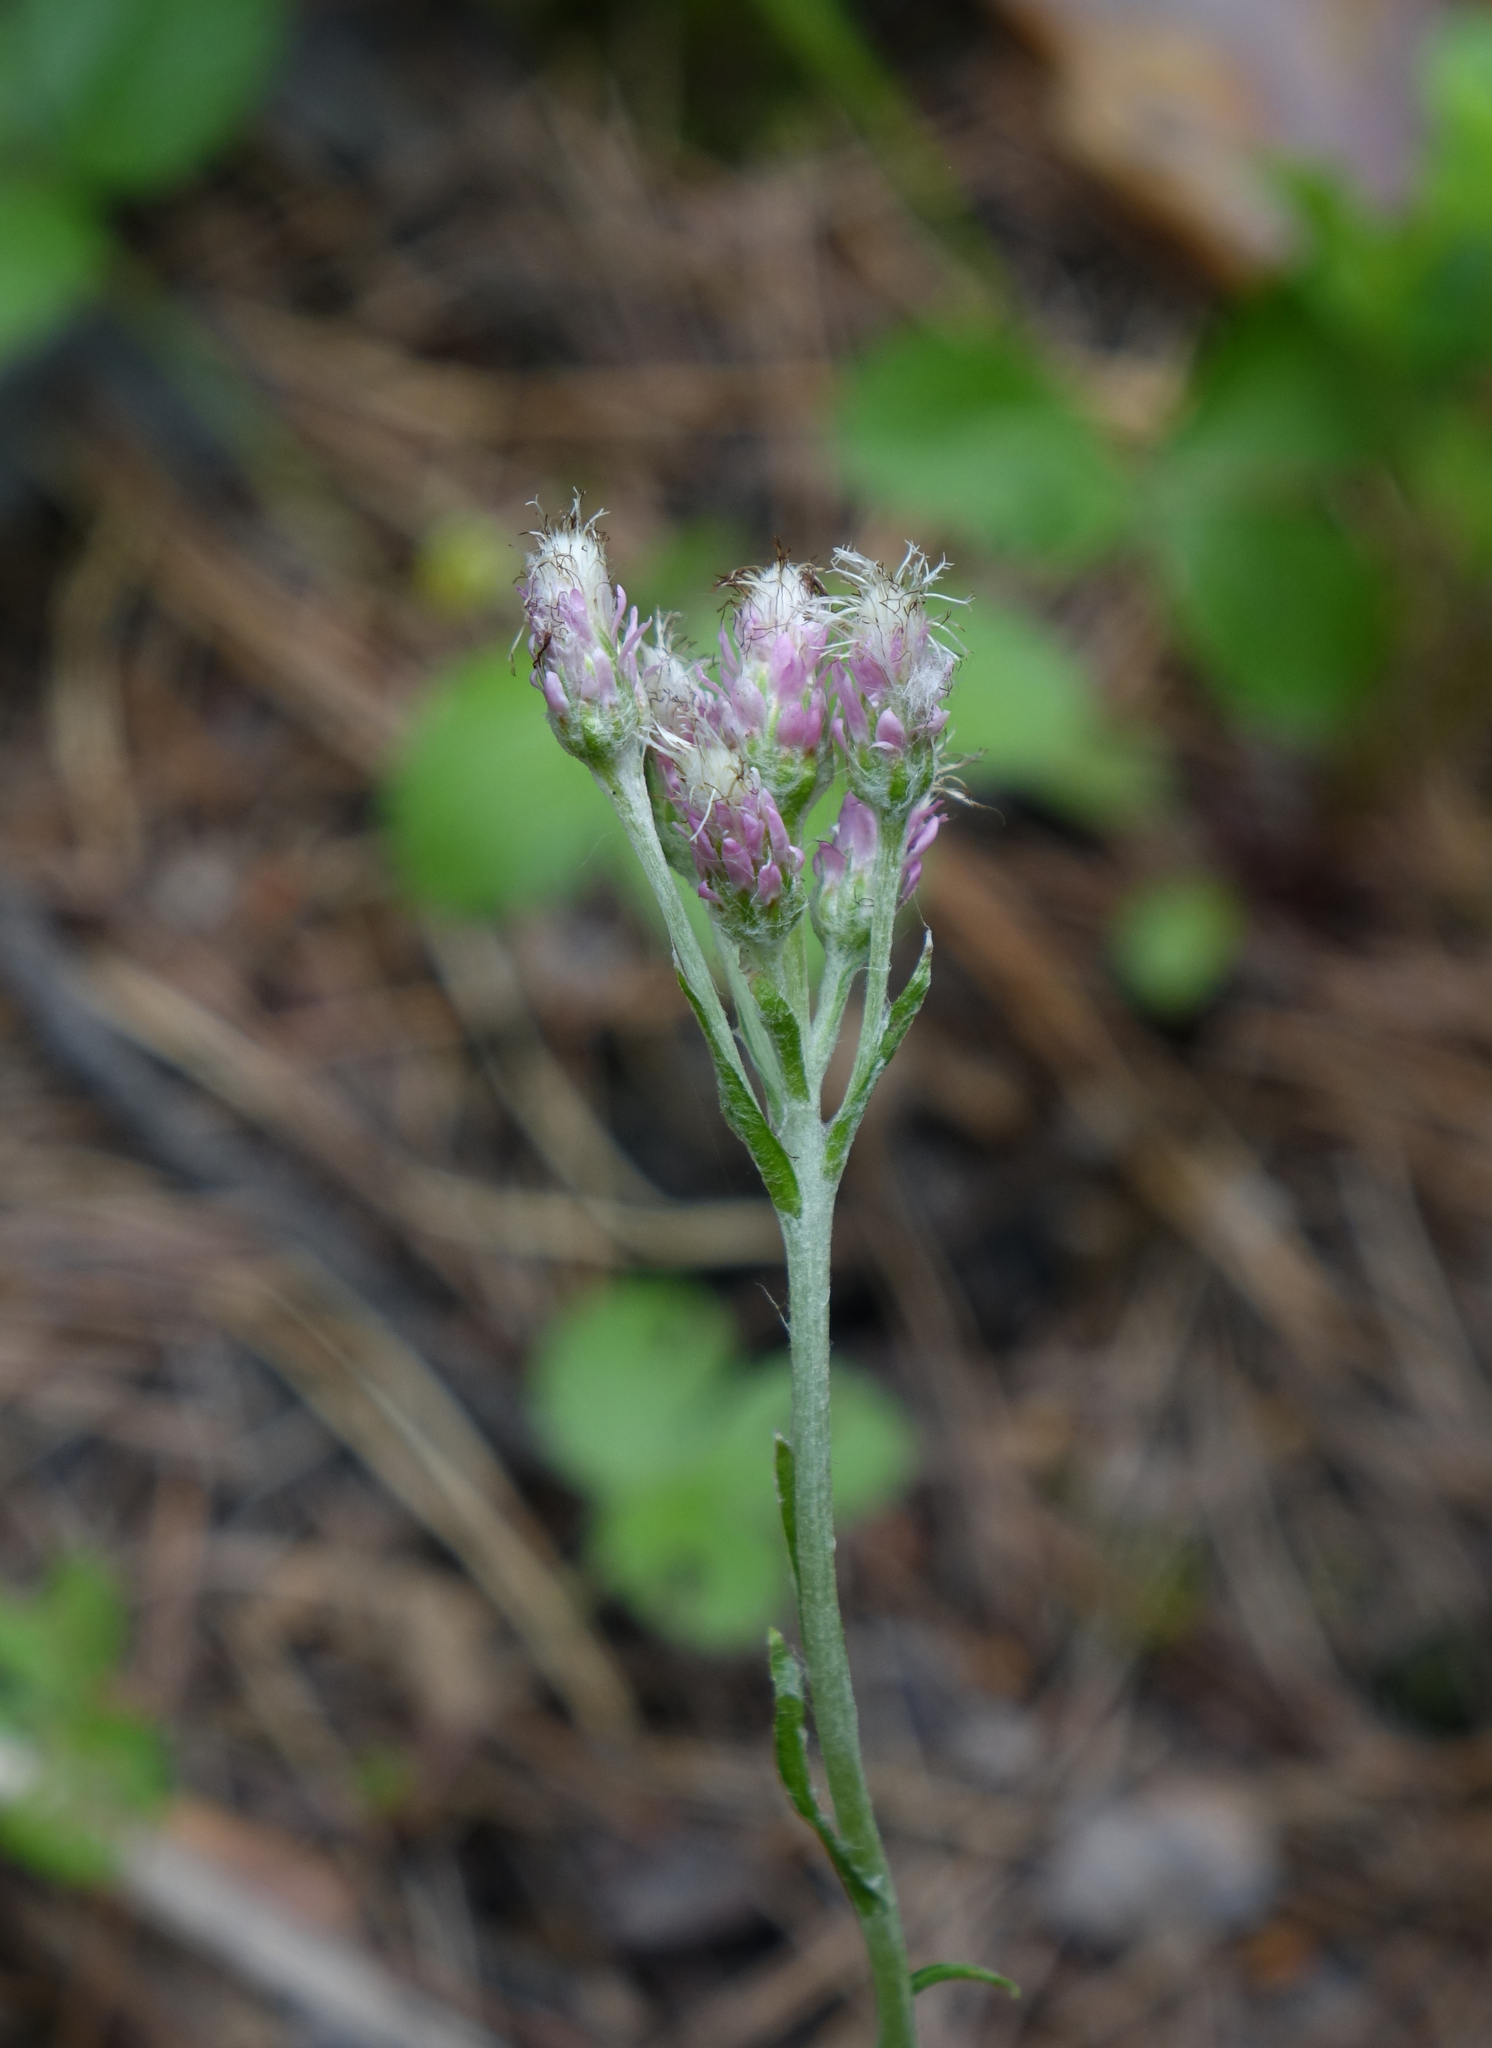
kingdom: Plantae
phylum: Tracheophyta
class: Magnoliopsida
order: Asterales
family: Asteraceae
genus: Antennaria
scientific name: Antennaria dioica
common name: Mountain everlasting
